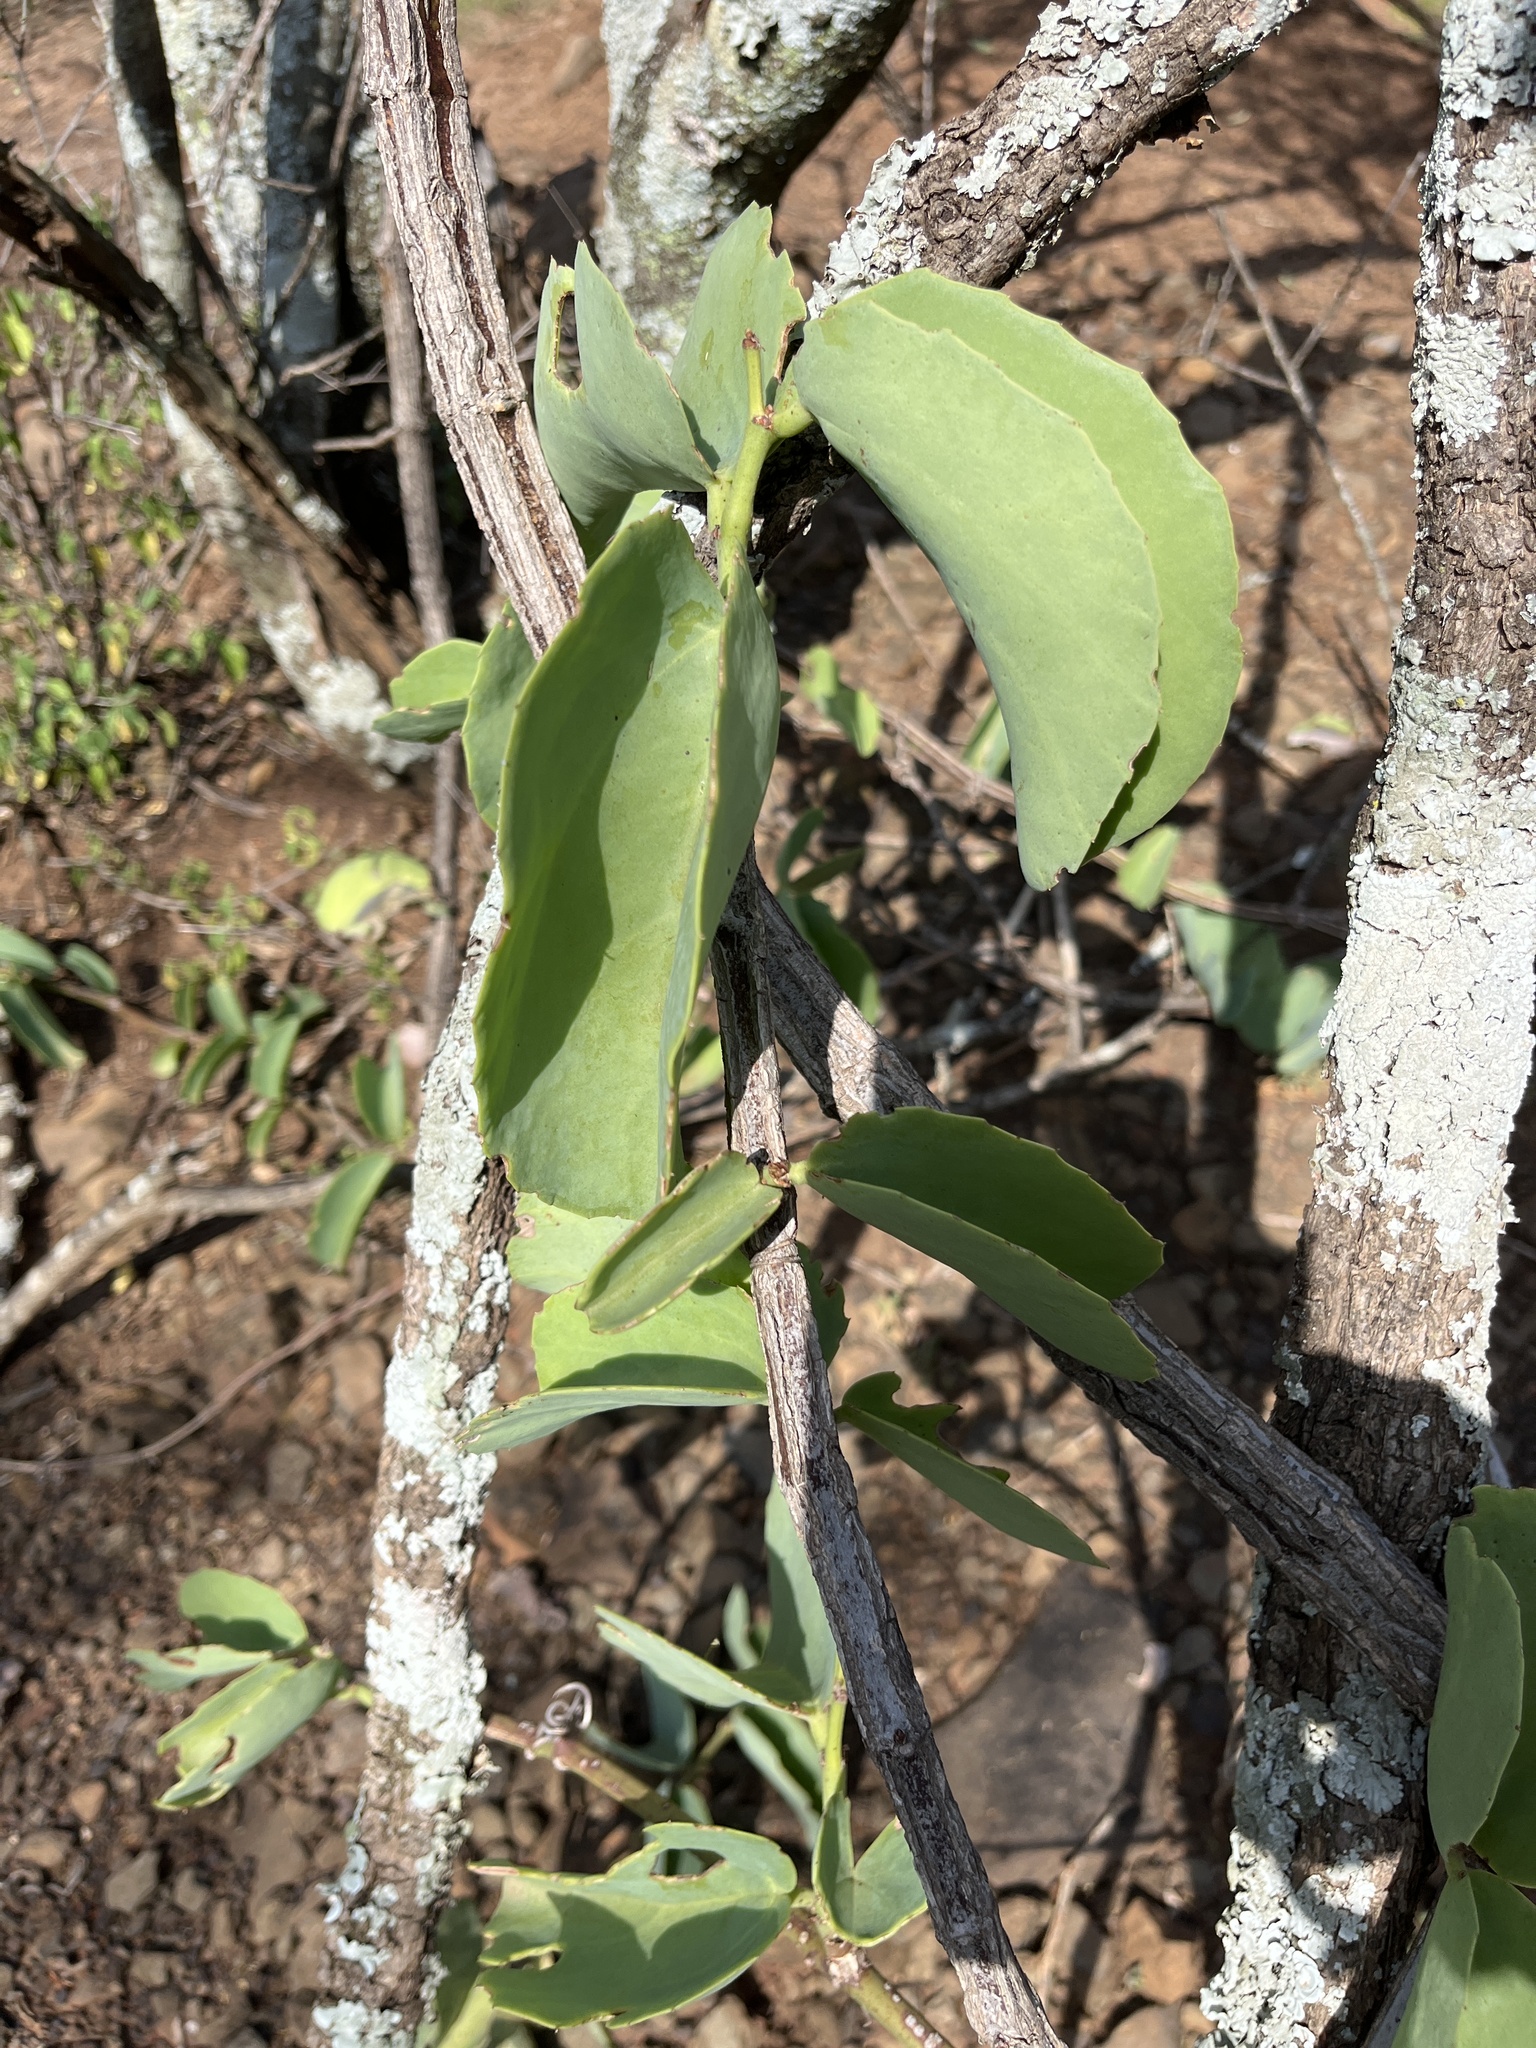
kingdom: Plantae
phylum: Tracheophyta
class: Magnoliopsida
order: Vitales
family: Vitaceae
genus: Cissus
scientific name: Cissus rotundifolia
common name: Arabian wax cissus
